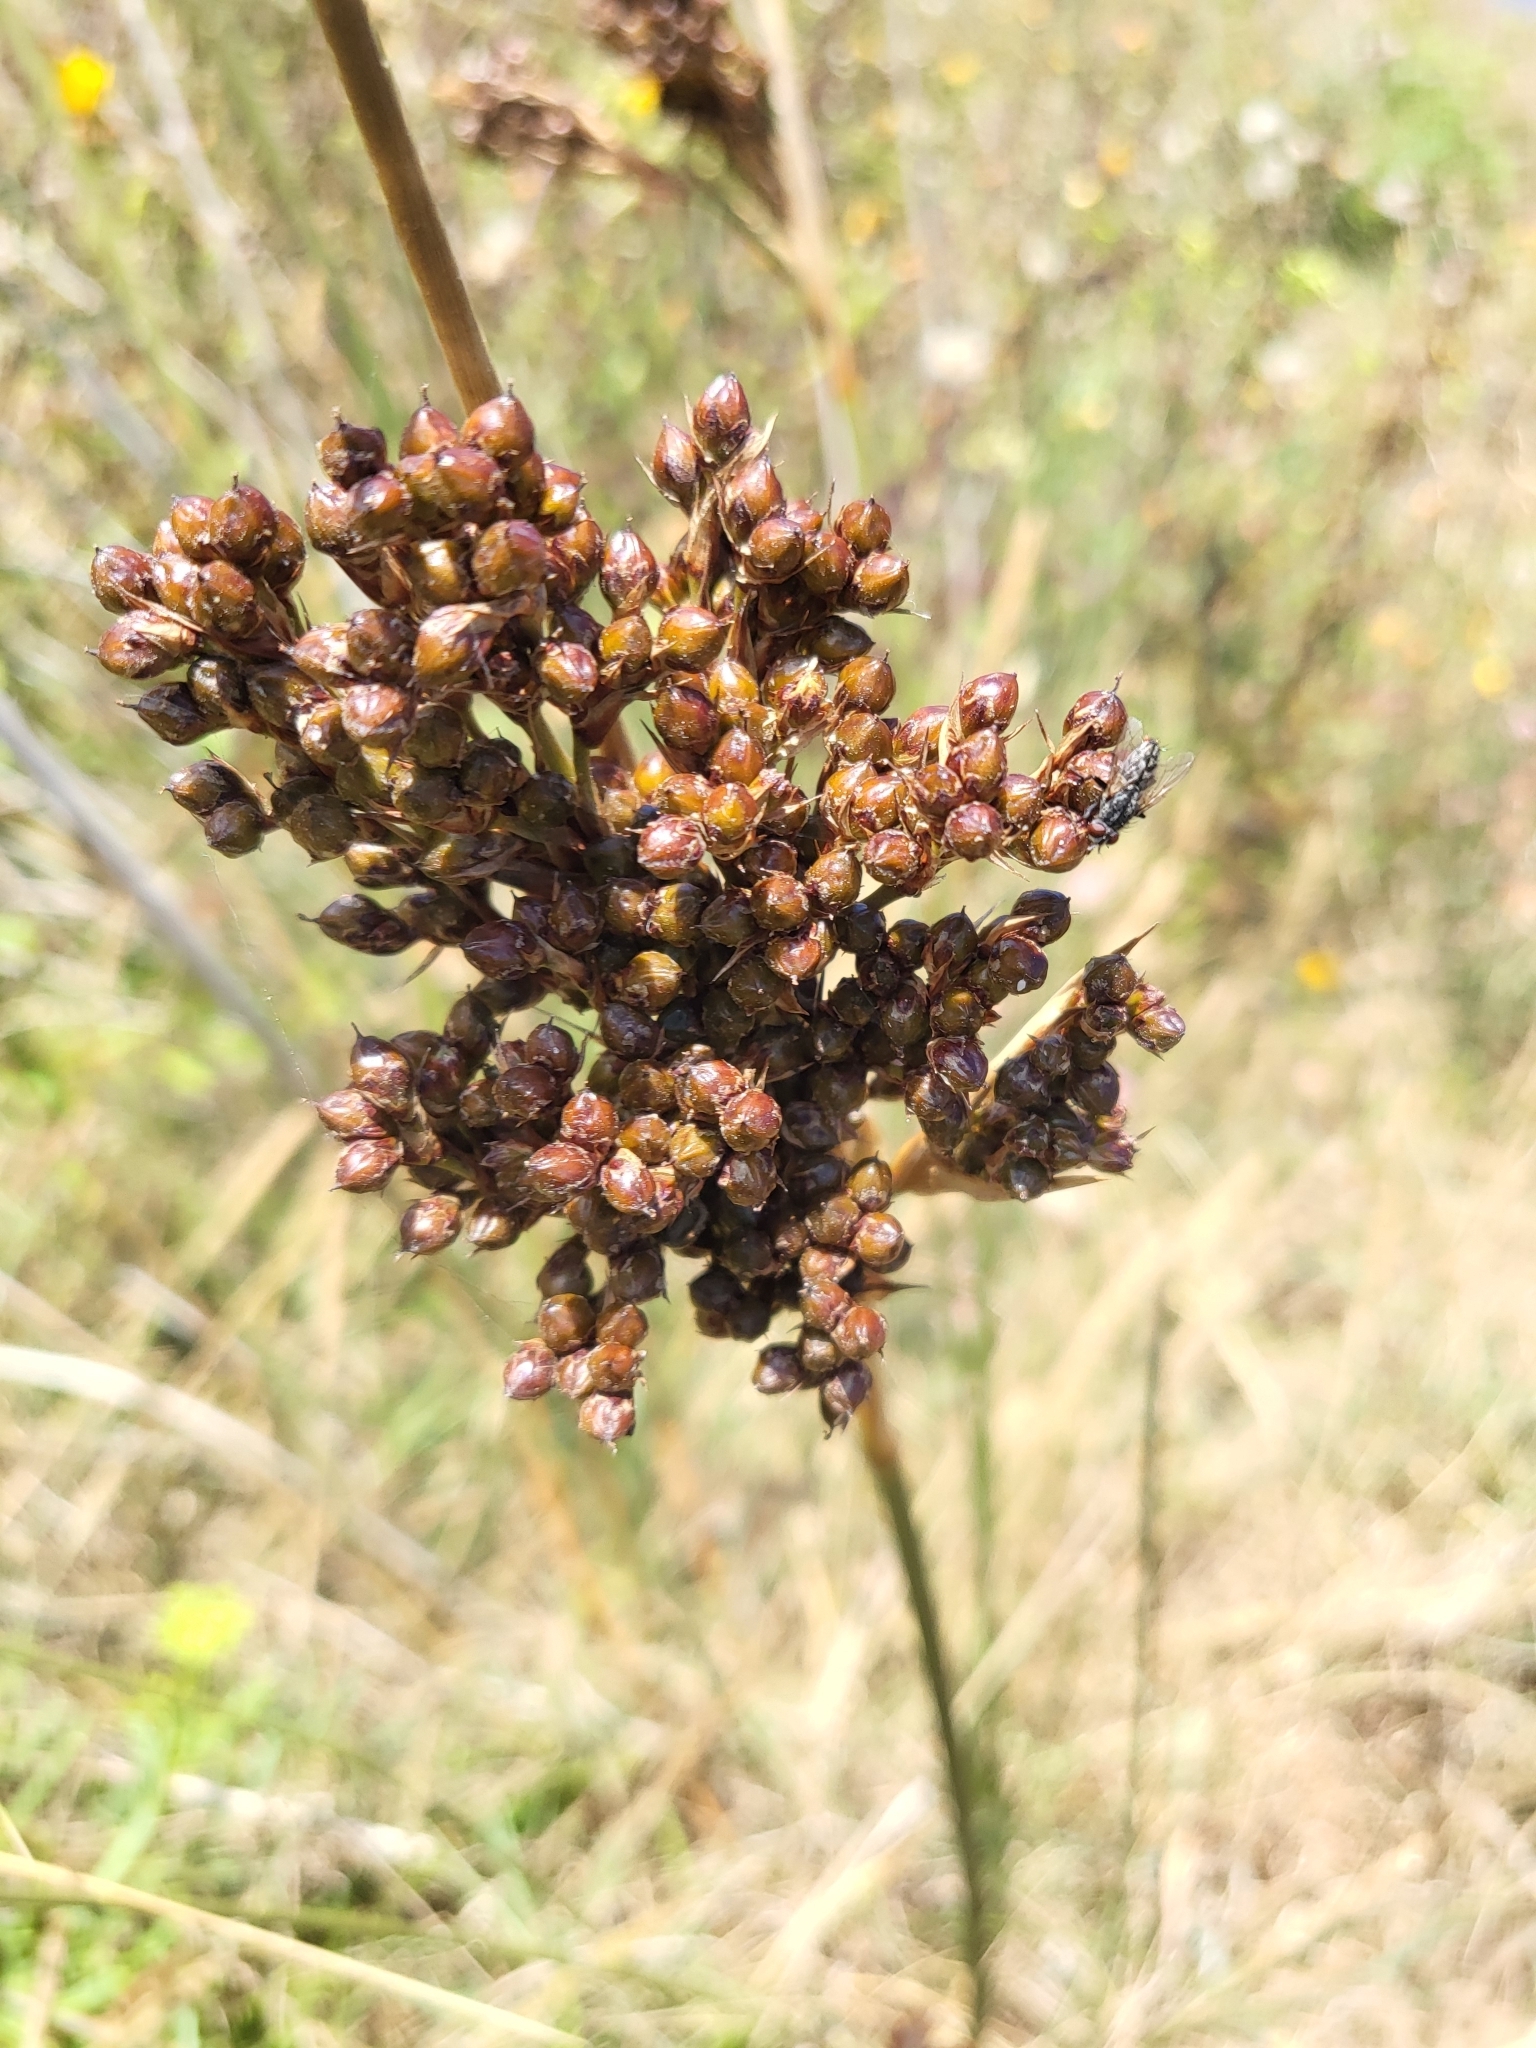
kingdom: Plantae
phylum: Tracheophyta
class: Liliopsida
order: Poales
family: Juncaceae
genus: Juncus
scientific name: Juncus acutus
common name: Sharp rush
